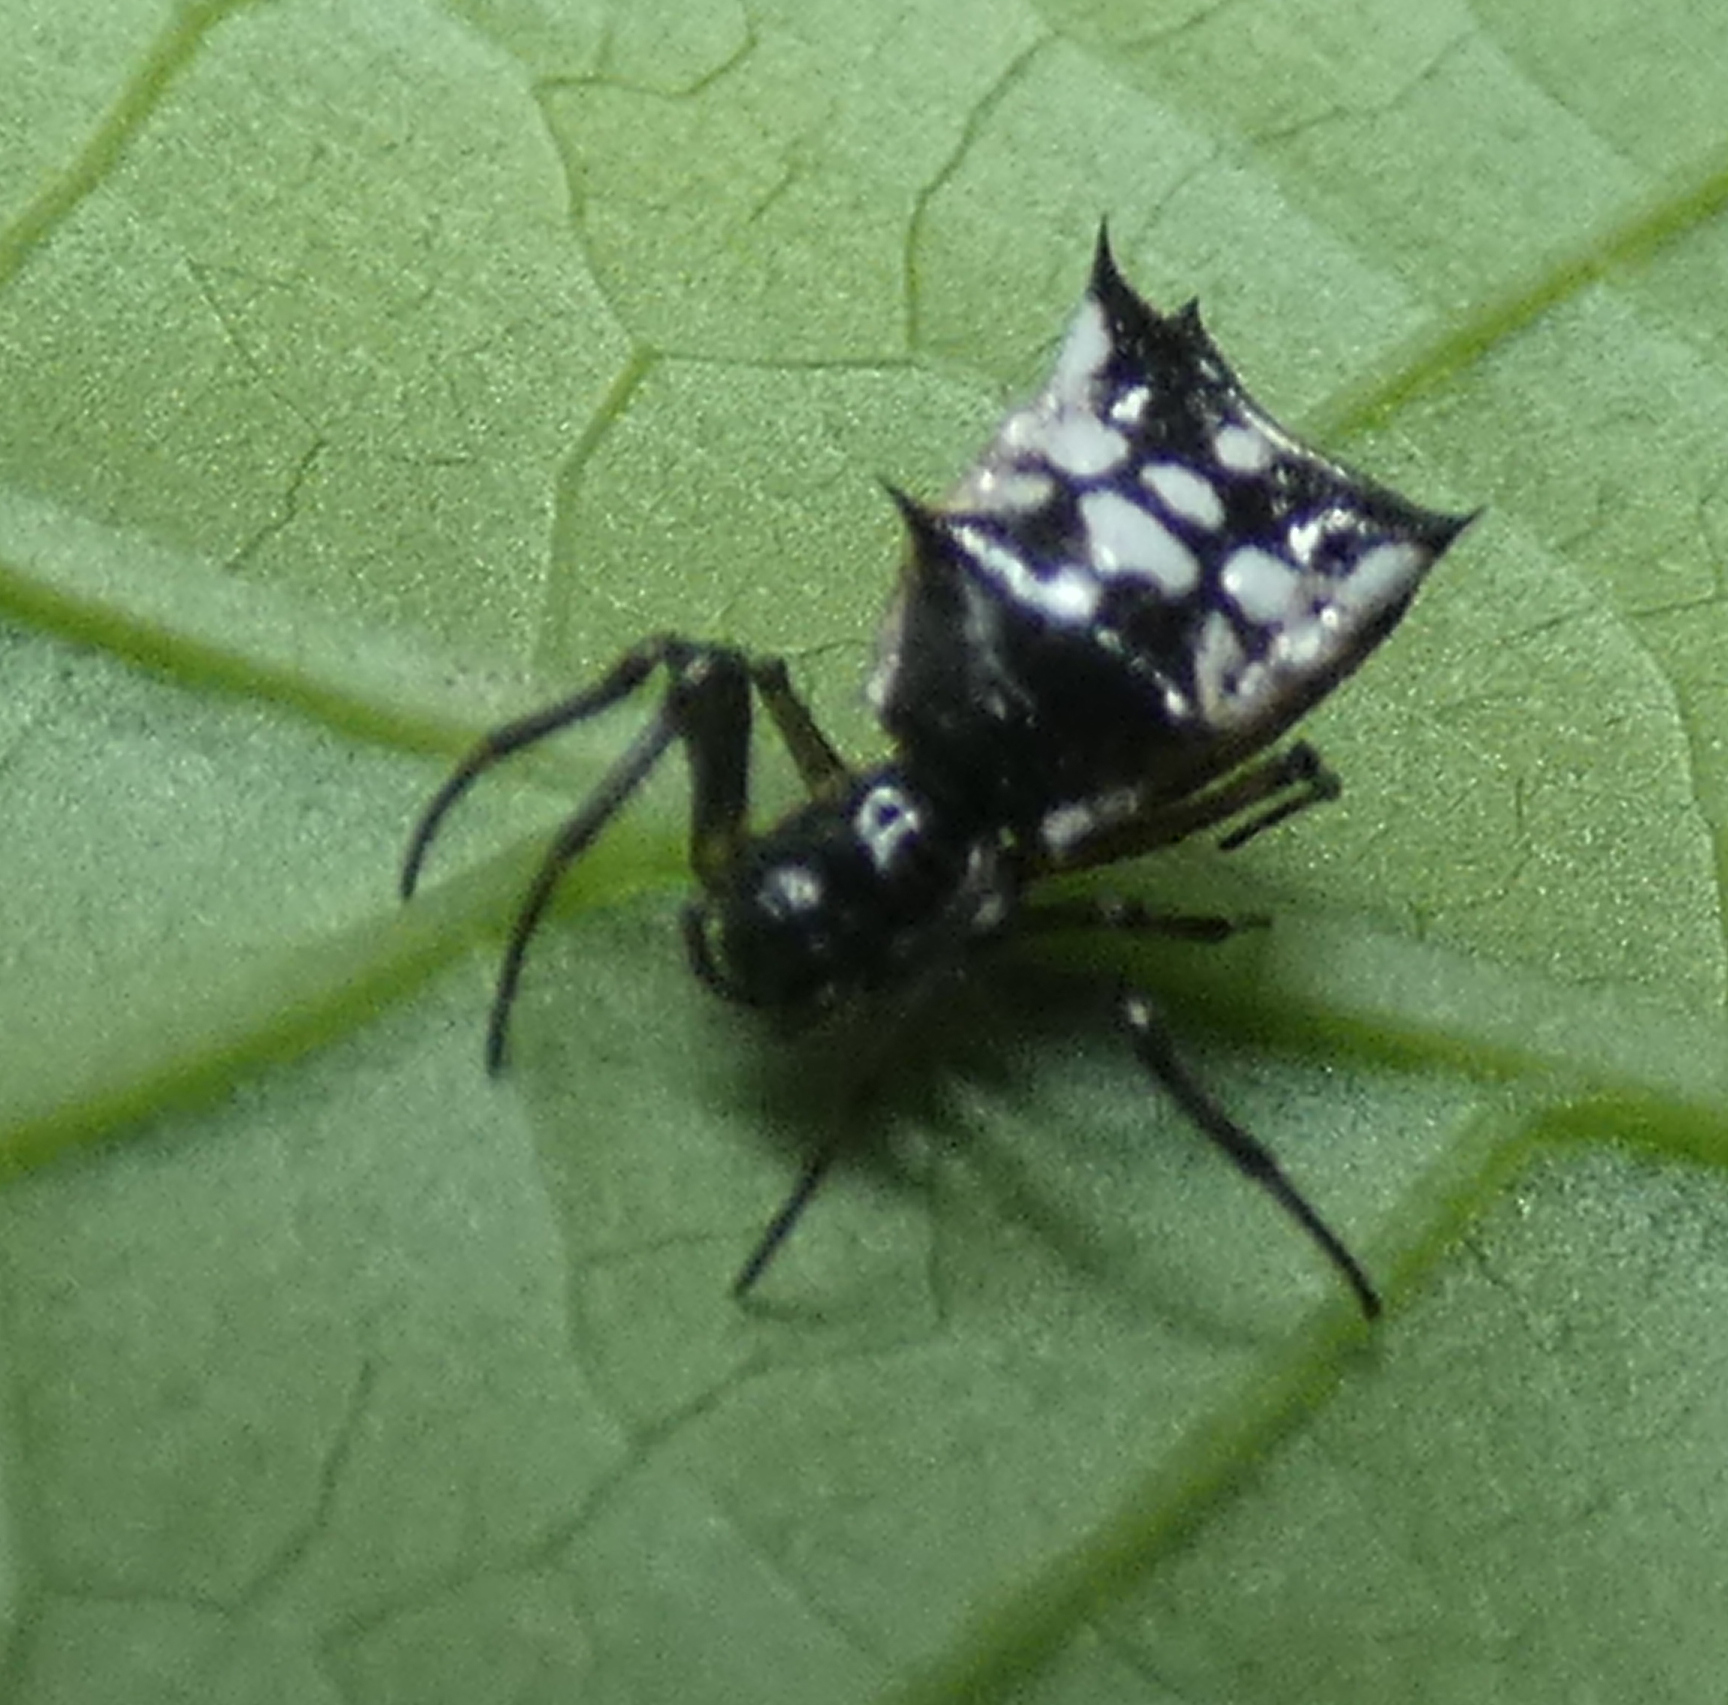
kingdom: Animalia
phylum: Arthropoda
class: Arachnida
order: Araneae
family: Araneidae
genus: Micrathena
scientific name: Micrathena picta
